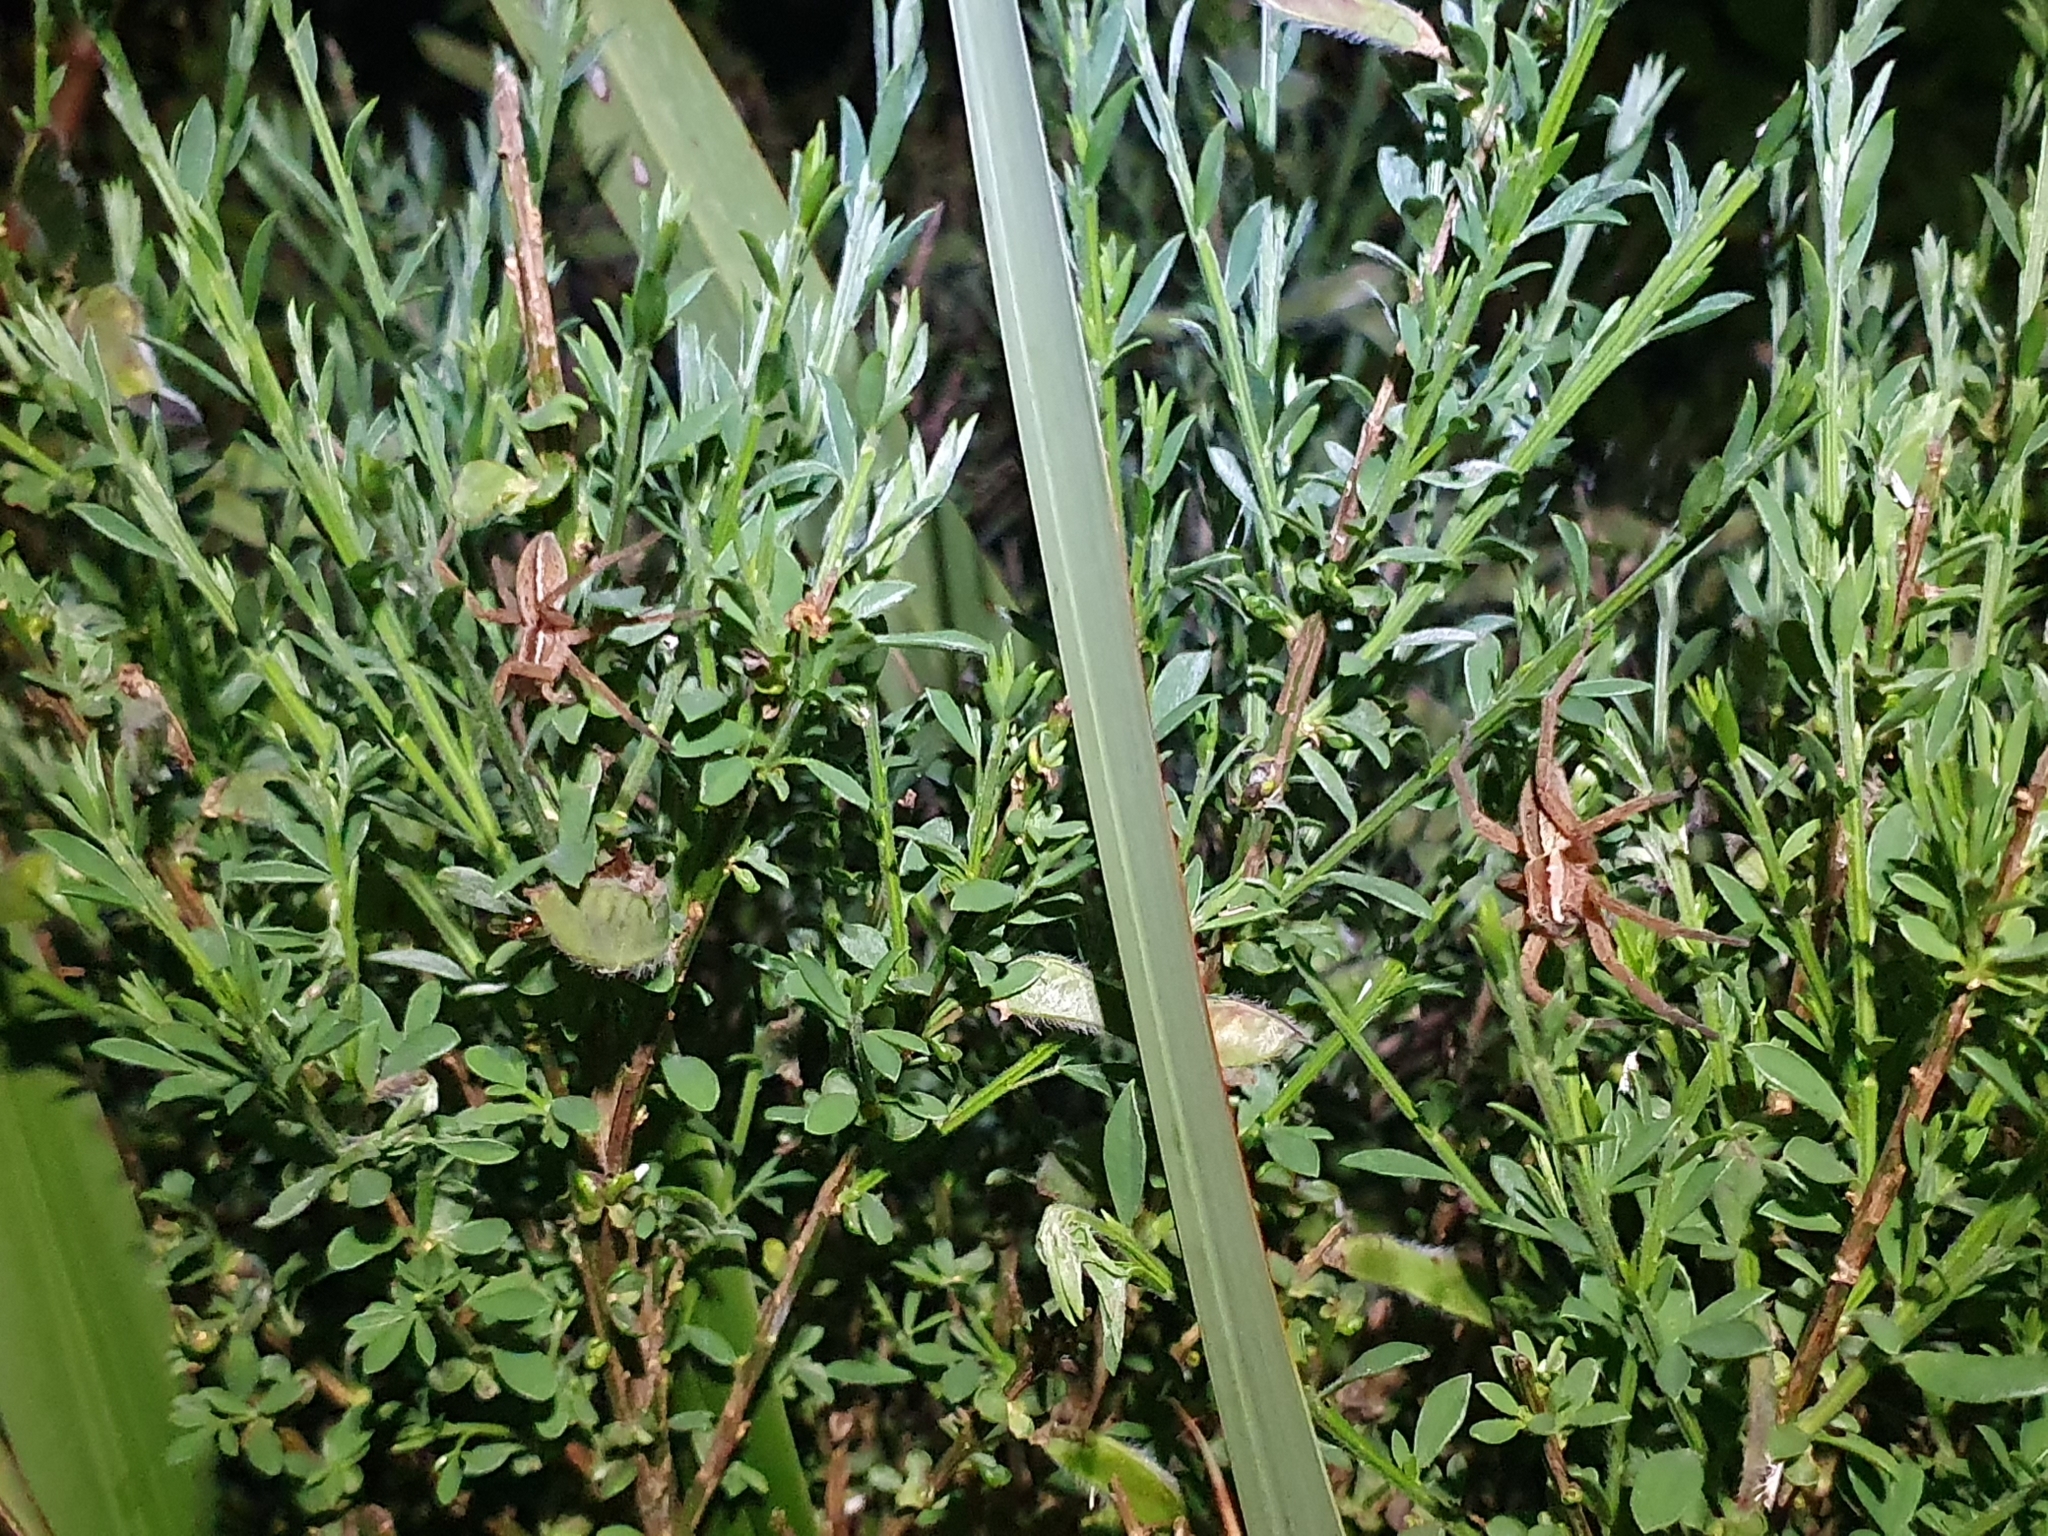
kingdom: Animalia
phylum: Arthropoda
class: Arachnida
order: Araneae
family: Pisauridae
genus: Dolomedes
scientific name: Dolomedes minor
